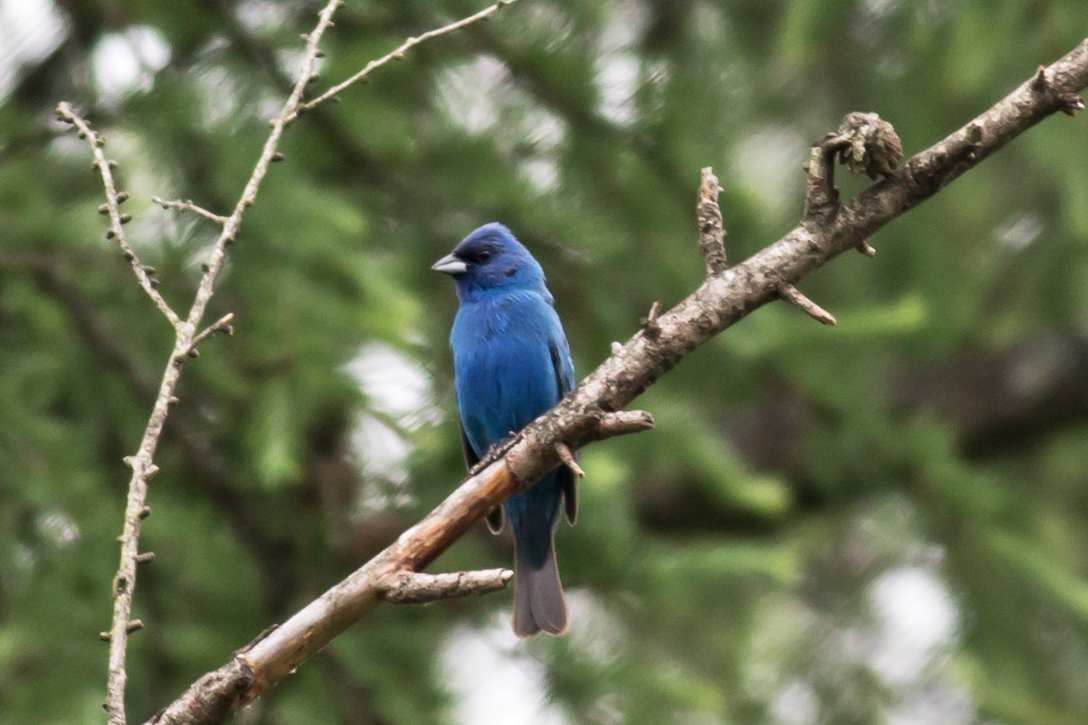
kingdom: Animalia
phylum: Chordata
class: Aves
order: Passeriformes
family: Cardinalidae
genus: Passerina
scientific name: Passerina cyanea
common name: Indigo bunting
